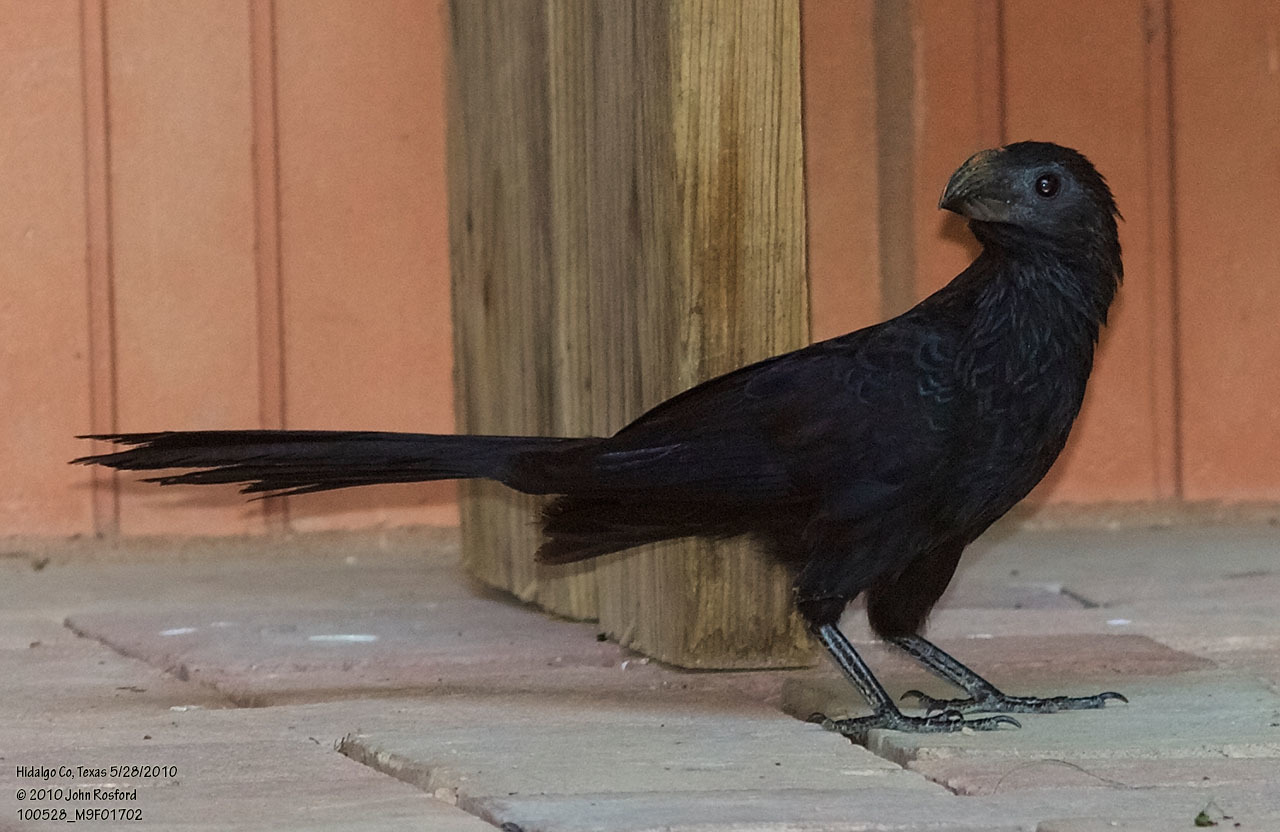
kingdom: Animalia
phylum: Chordata
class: Aves
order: Cuculiformes
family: Cuculidae
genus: Crotophaga
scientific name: Crotophaga sulcirostris
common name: Groove-billed ani
